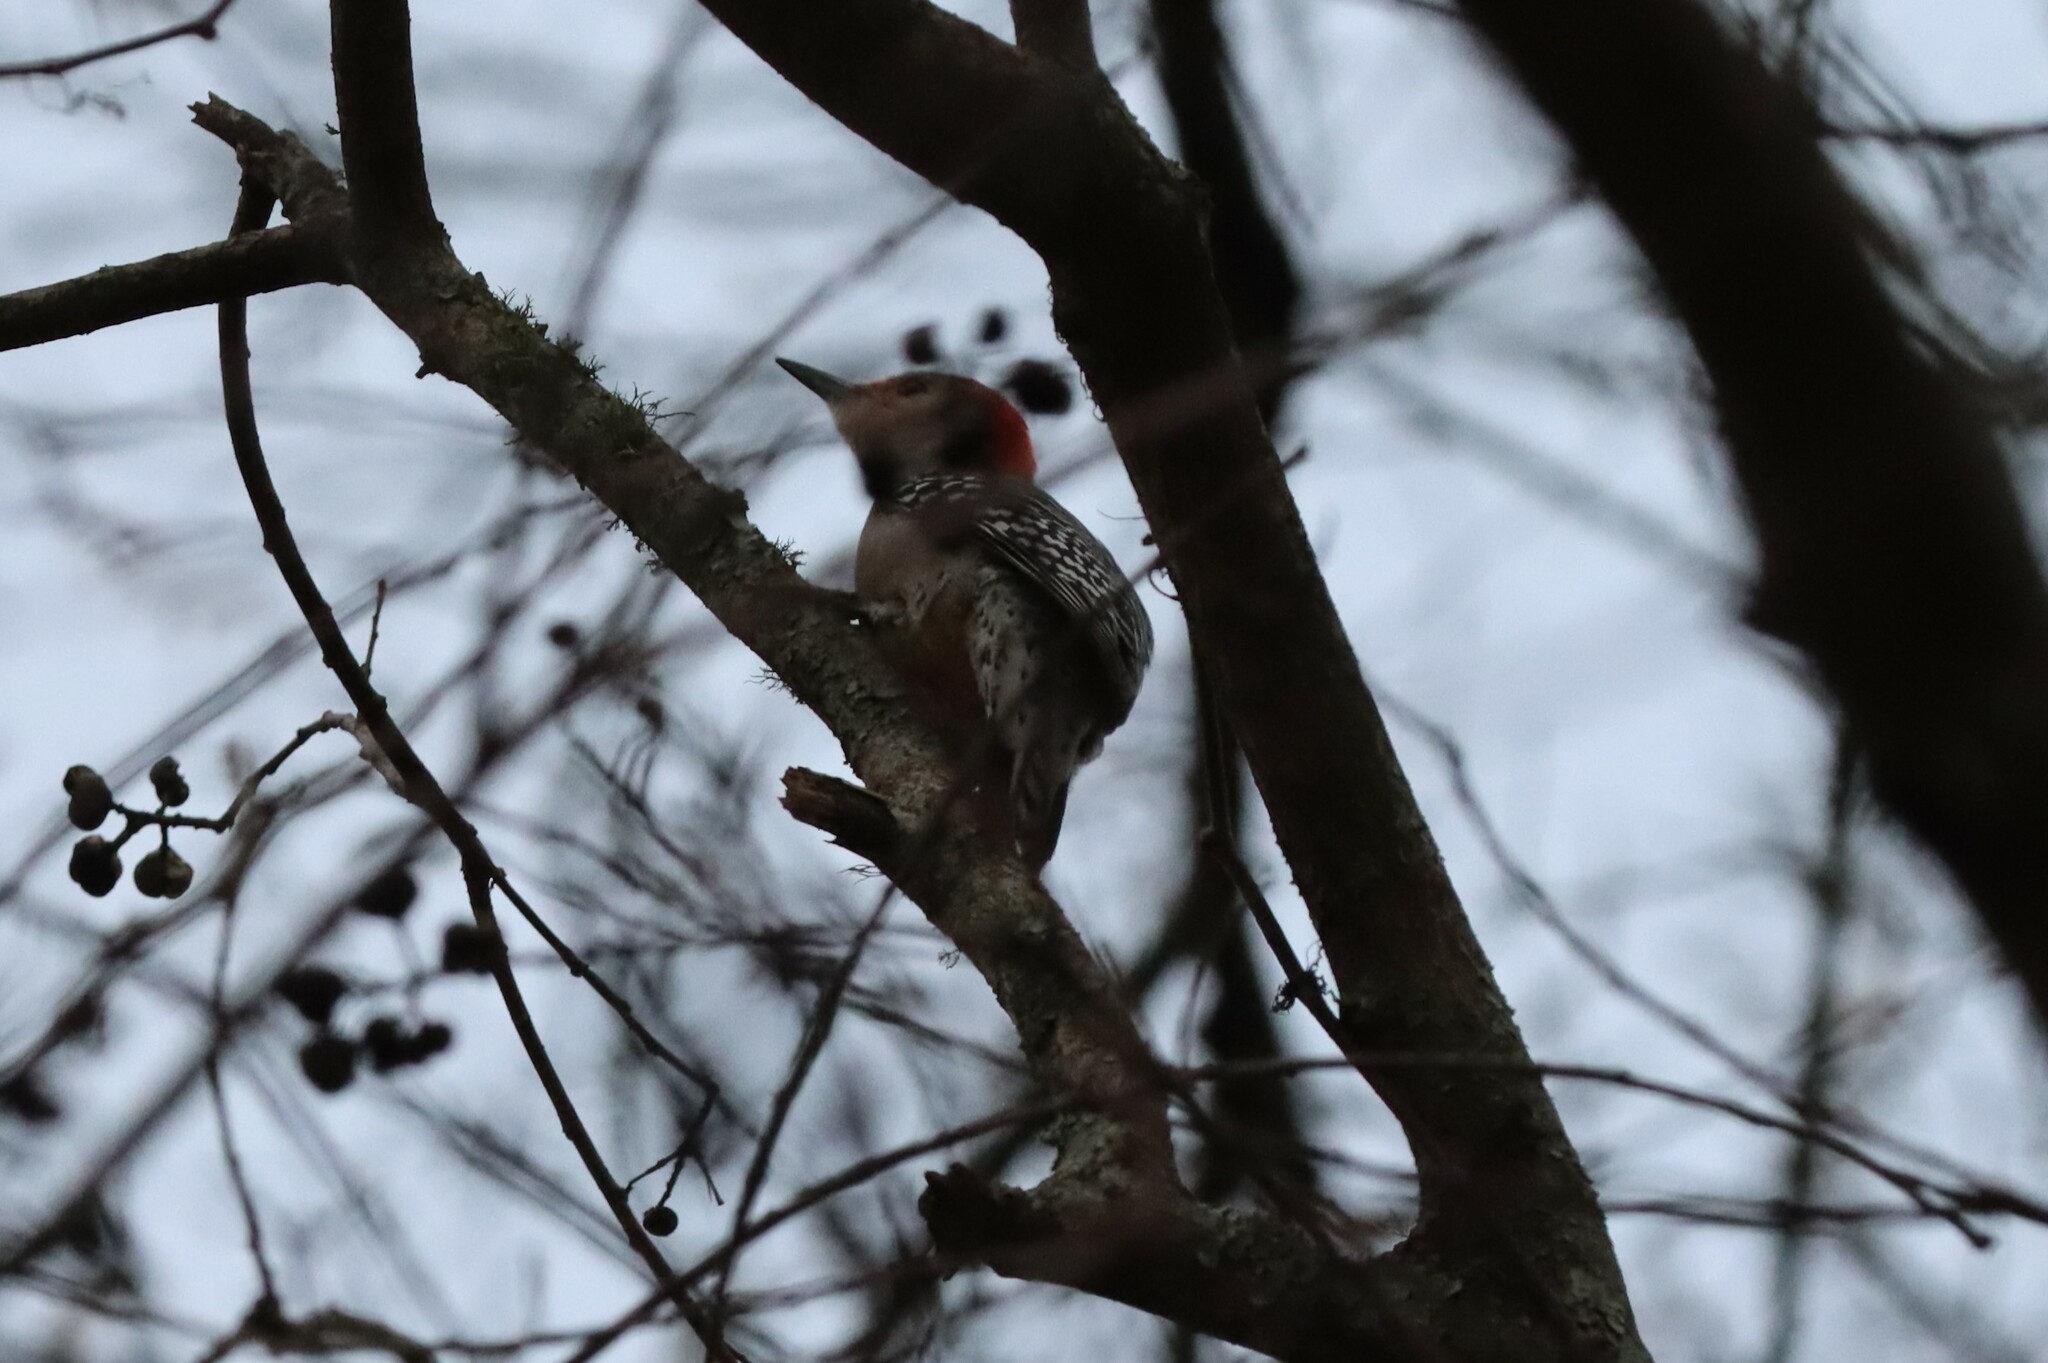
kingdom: Animalia
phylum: Chordata
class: Aves
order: Piciformes
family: Picidae
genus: Melanerpes
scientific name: Melanerpes carolinus
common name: Red-bellied woodpecker
